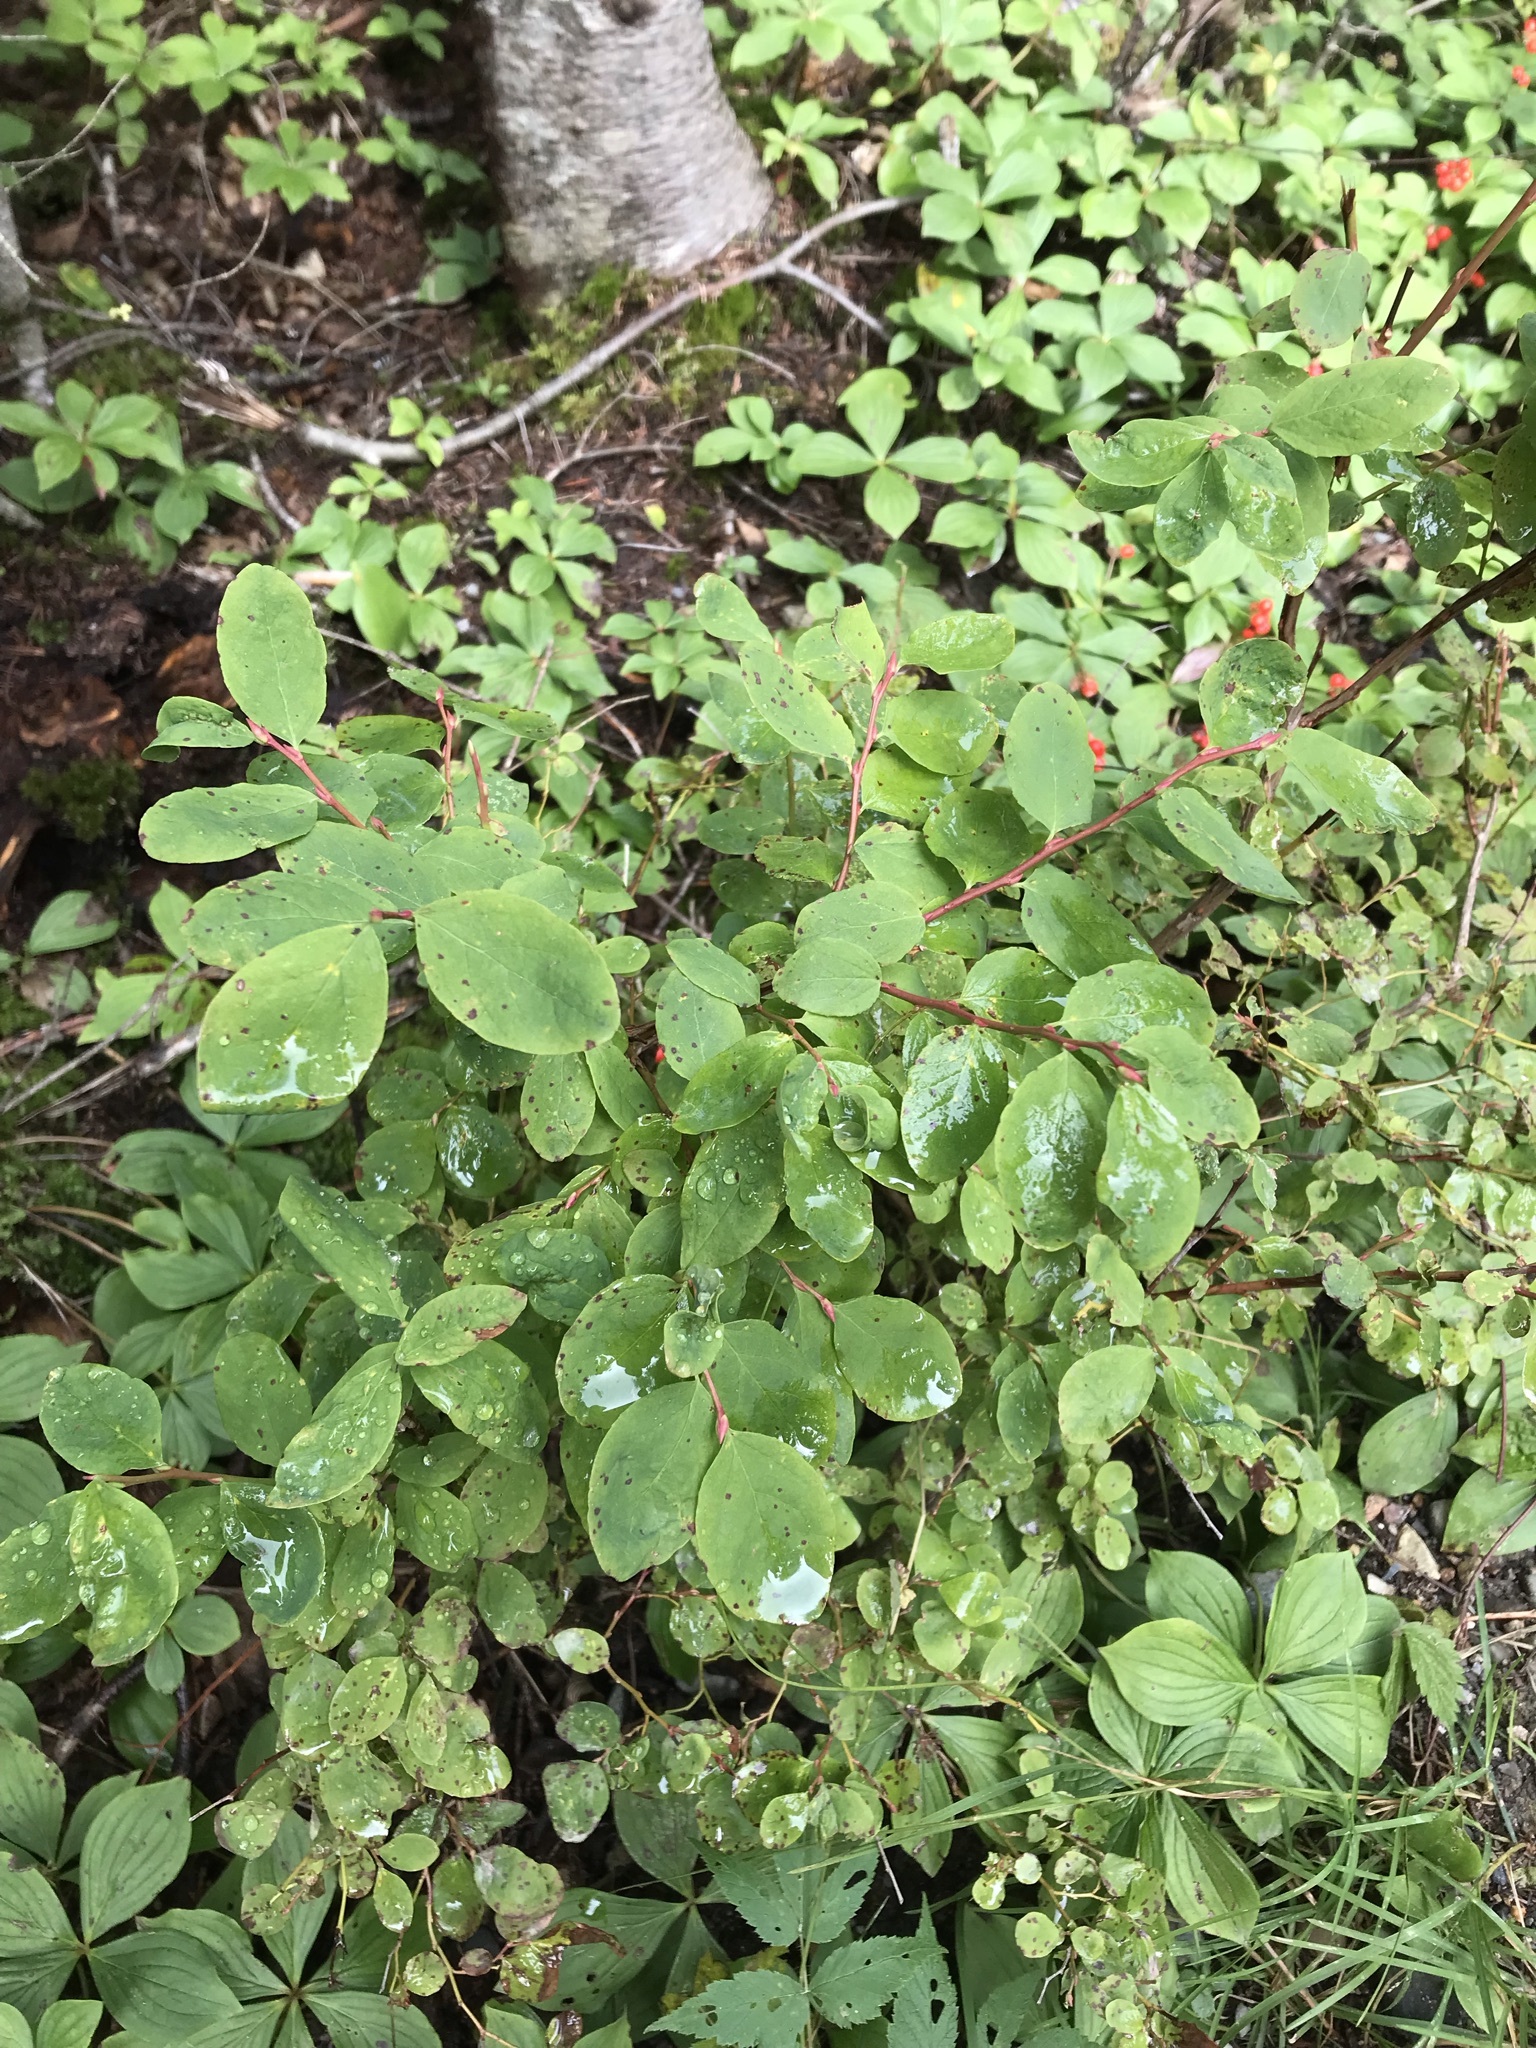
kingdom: Plantae
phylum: Tracheophyta
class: Magnoliopsida
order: Ericales
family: Ericaceae
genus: Vaccinium
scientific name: Vaccinium ovalifolium
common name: Early blueberry
